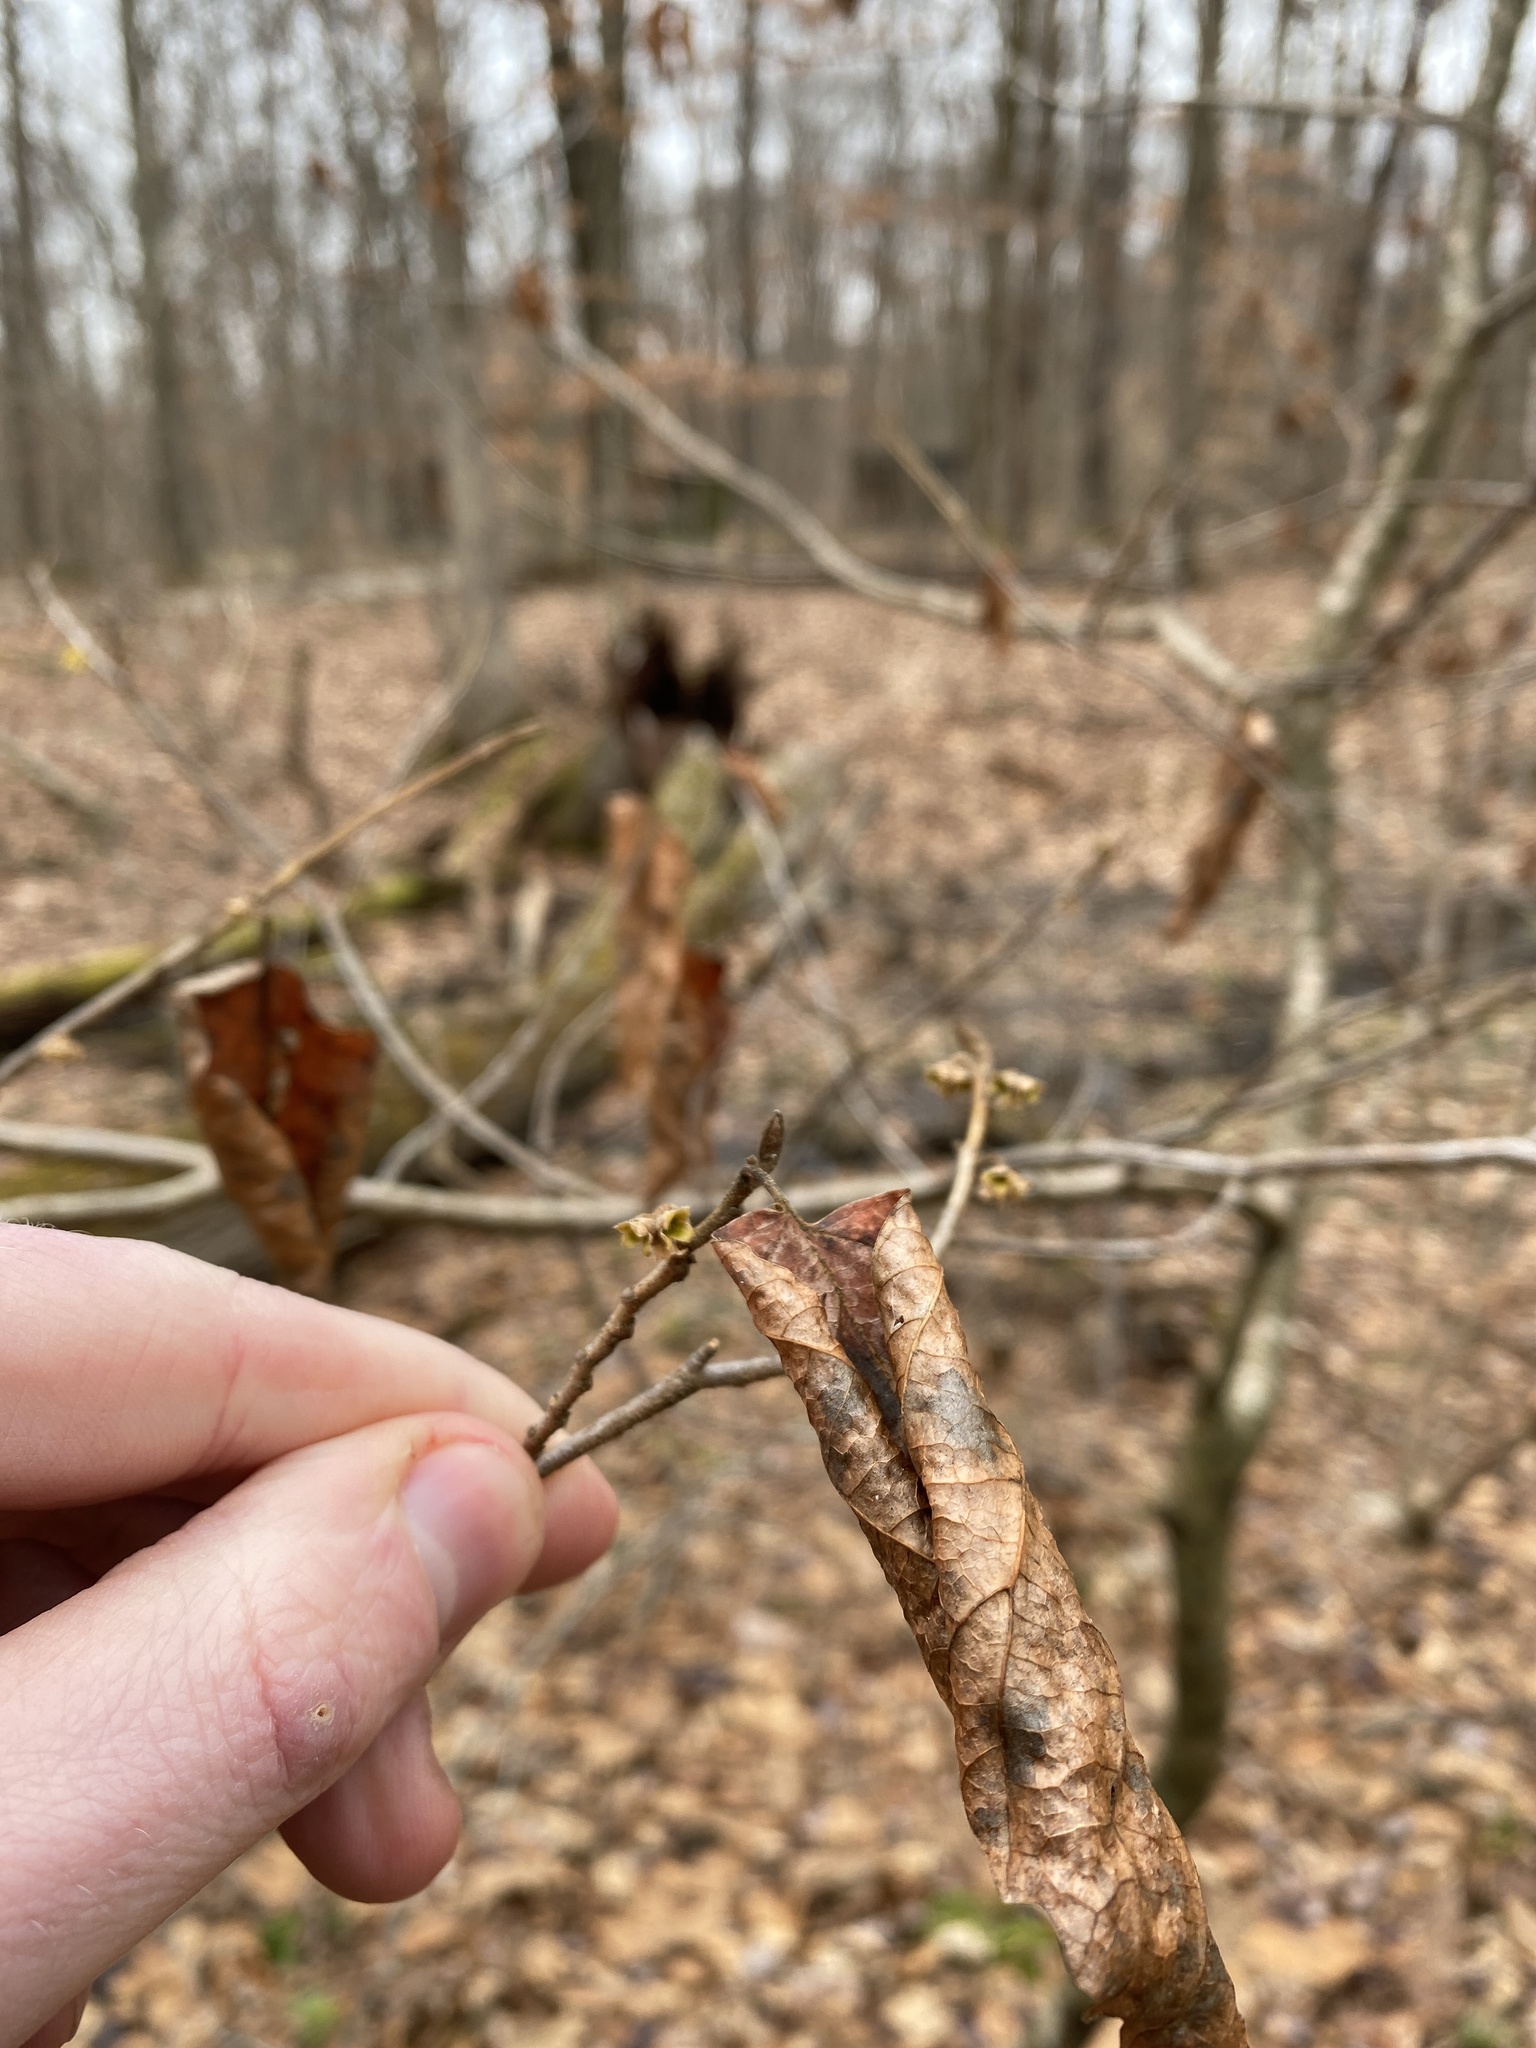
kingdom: Plantae
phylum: Tracheophyta
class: Magnoliopsida
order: Saxifragales
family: Hamamelidaceae
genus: Hamamelis
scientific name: Hamamelis virginiana
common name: Witch-hazel
